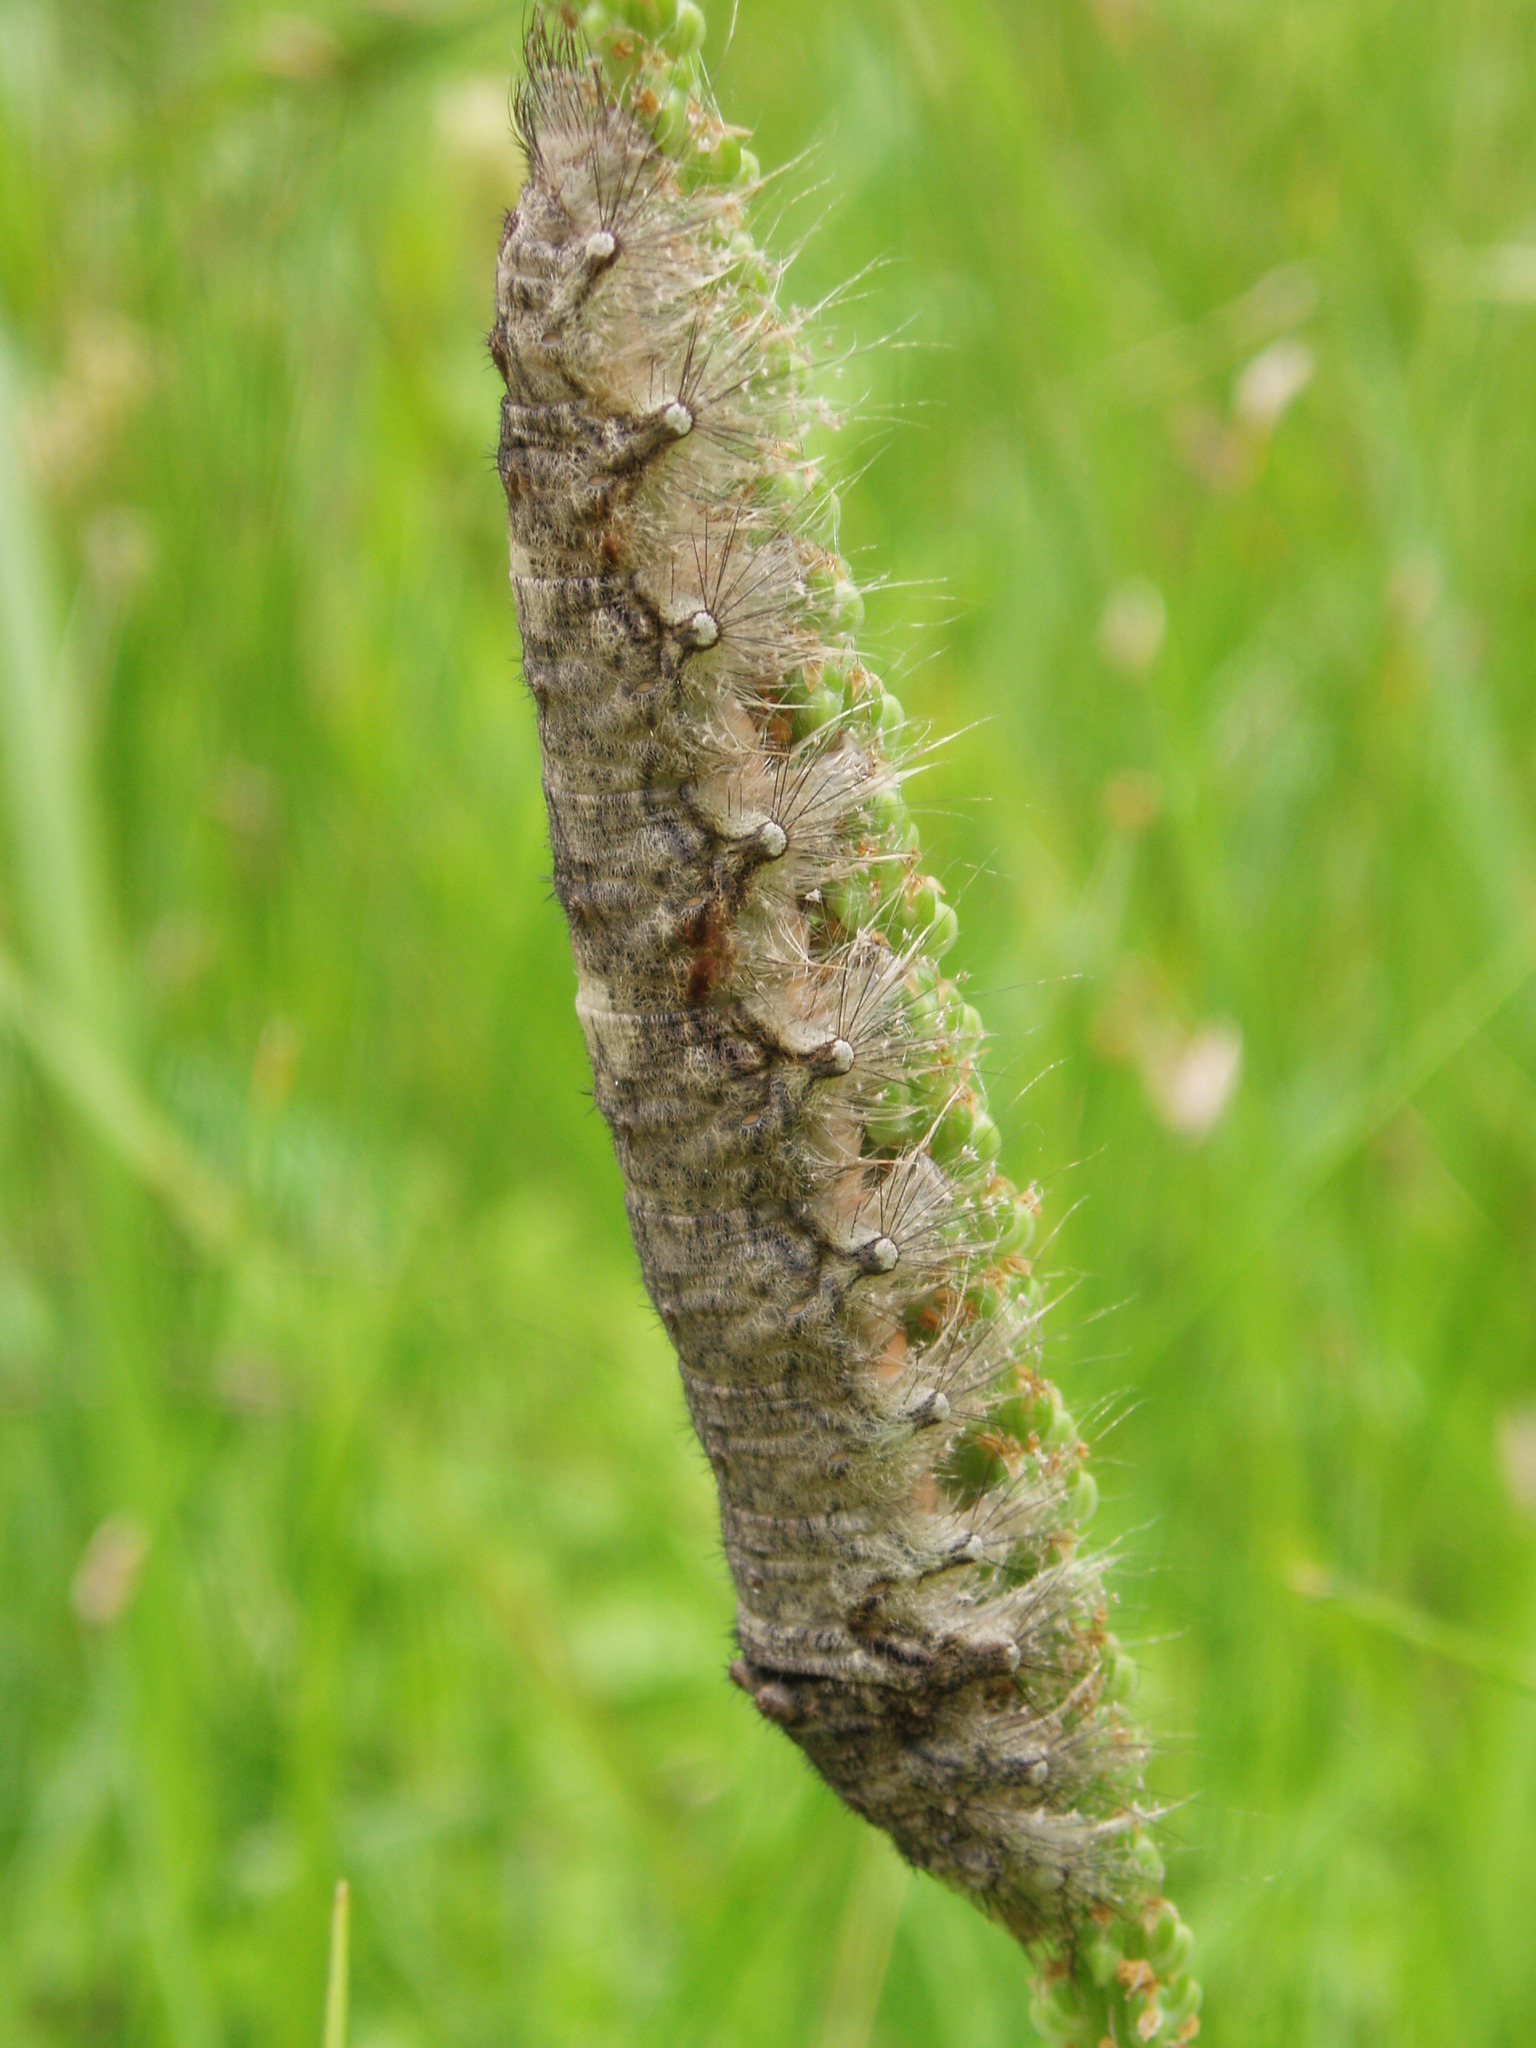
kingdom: Animalia
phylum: Arthropoda
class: Insecta
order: Lepidoptera
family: Lasiocampidae
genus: Tolype
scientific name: Tolype velleda
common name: Large tolype moth
